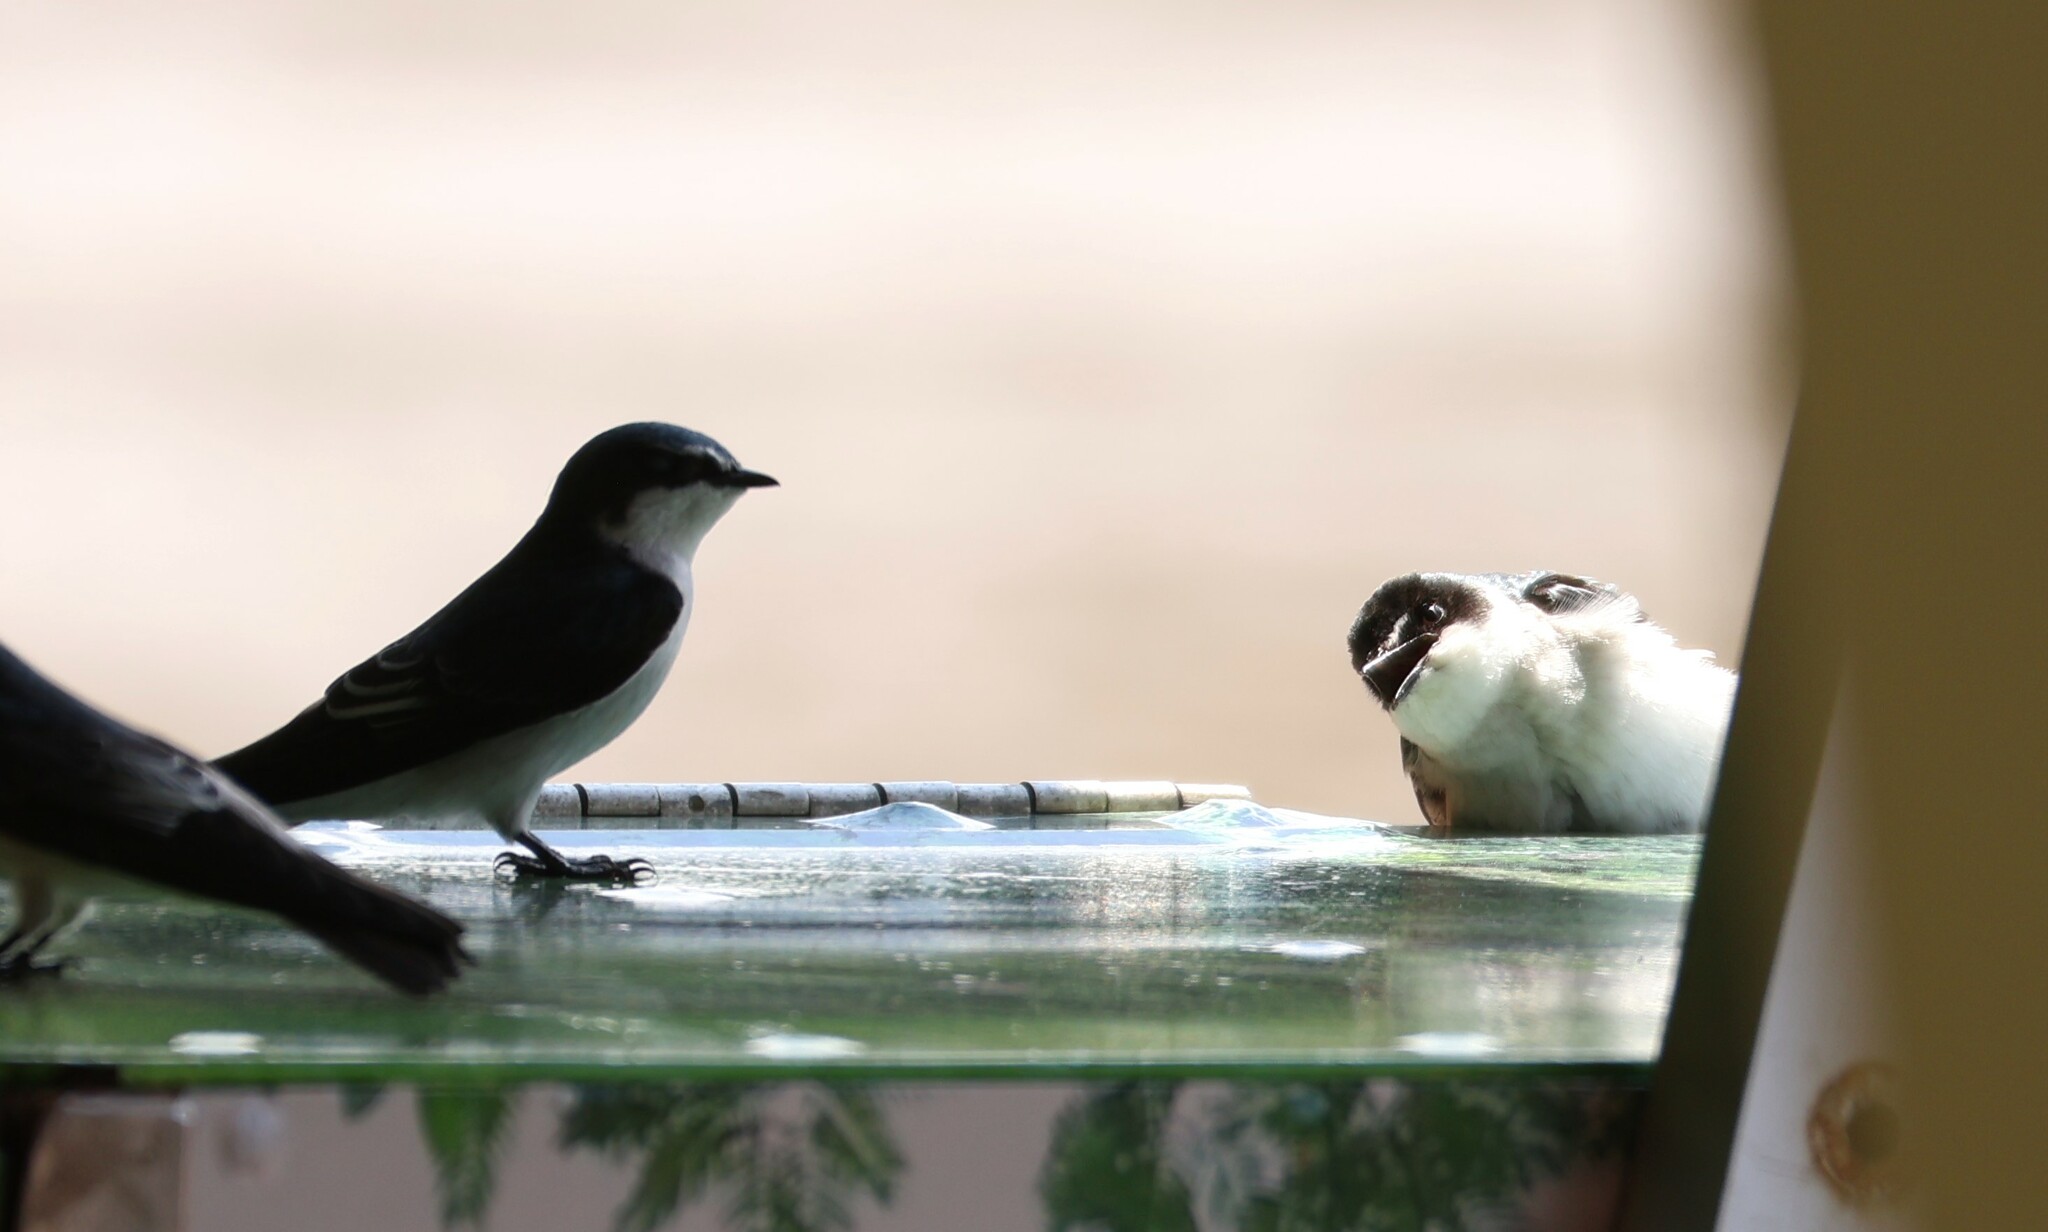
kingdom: Animalia
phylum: Chordata
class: Aves
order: Passeriformes
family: Hirundinidae
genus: Tachycineta
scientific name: Tachycineta albilinea
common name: Mangrove swallow
